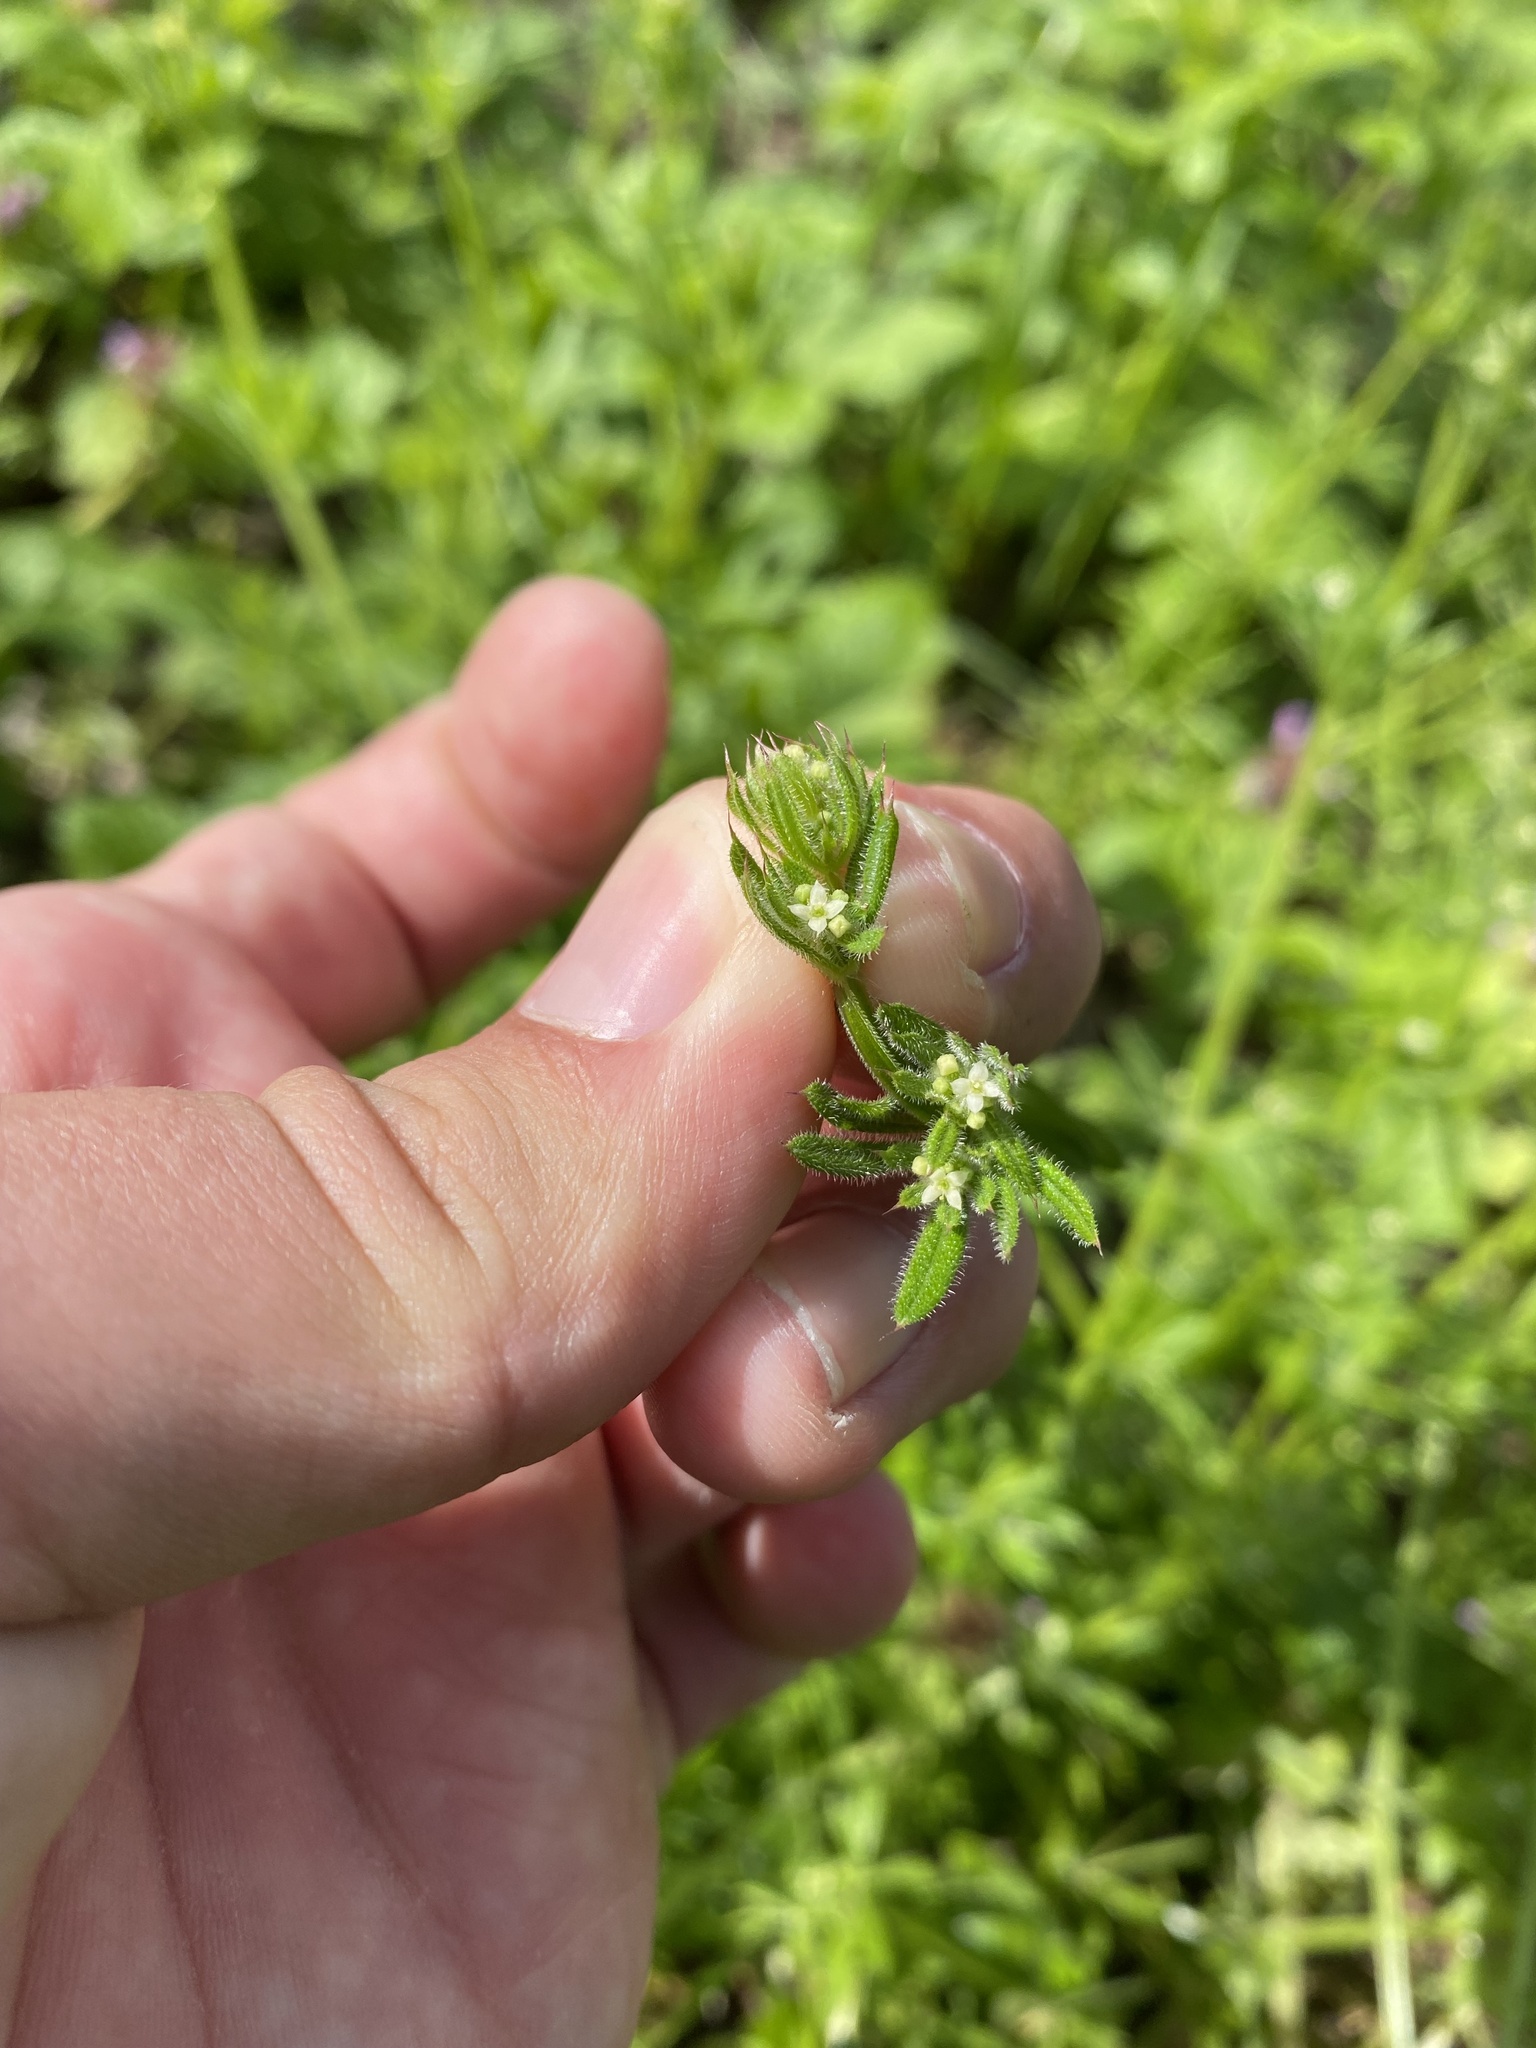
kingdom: Plantae
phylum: Tracheophyta
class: Magnoliopsida
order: Gentianales
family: Rubiaceae
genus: Galium
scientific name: Galium aparine
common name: Cleavers
